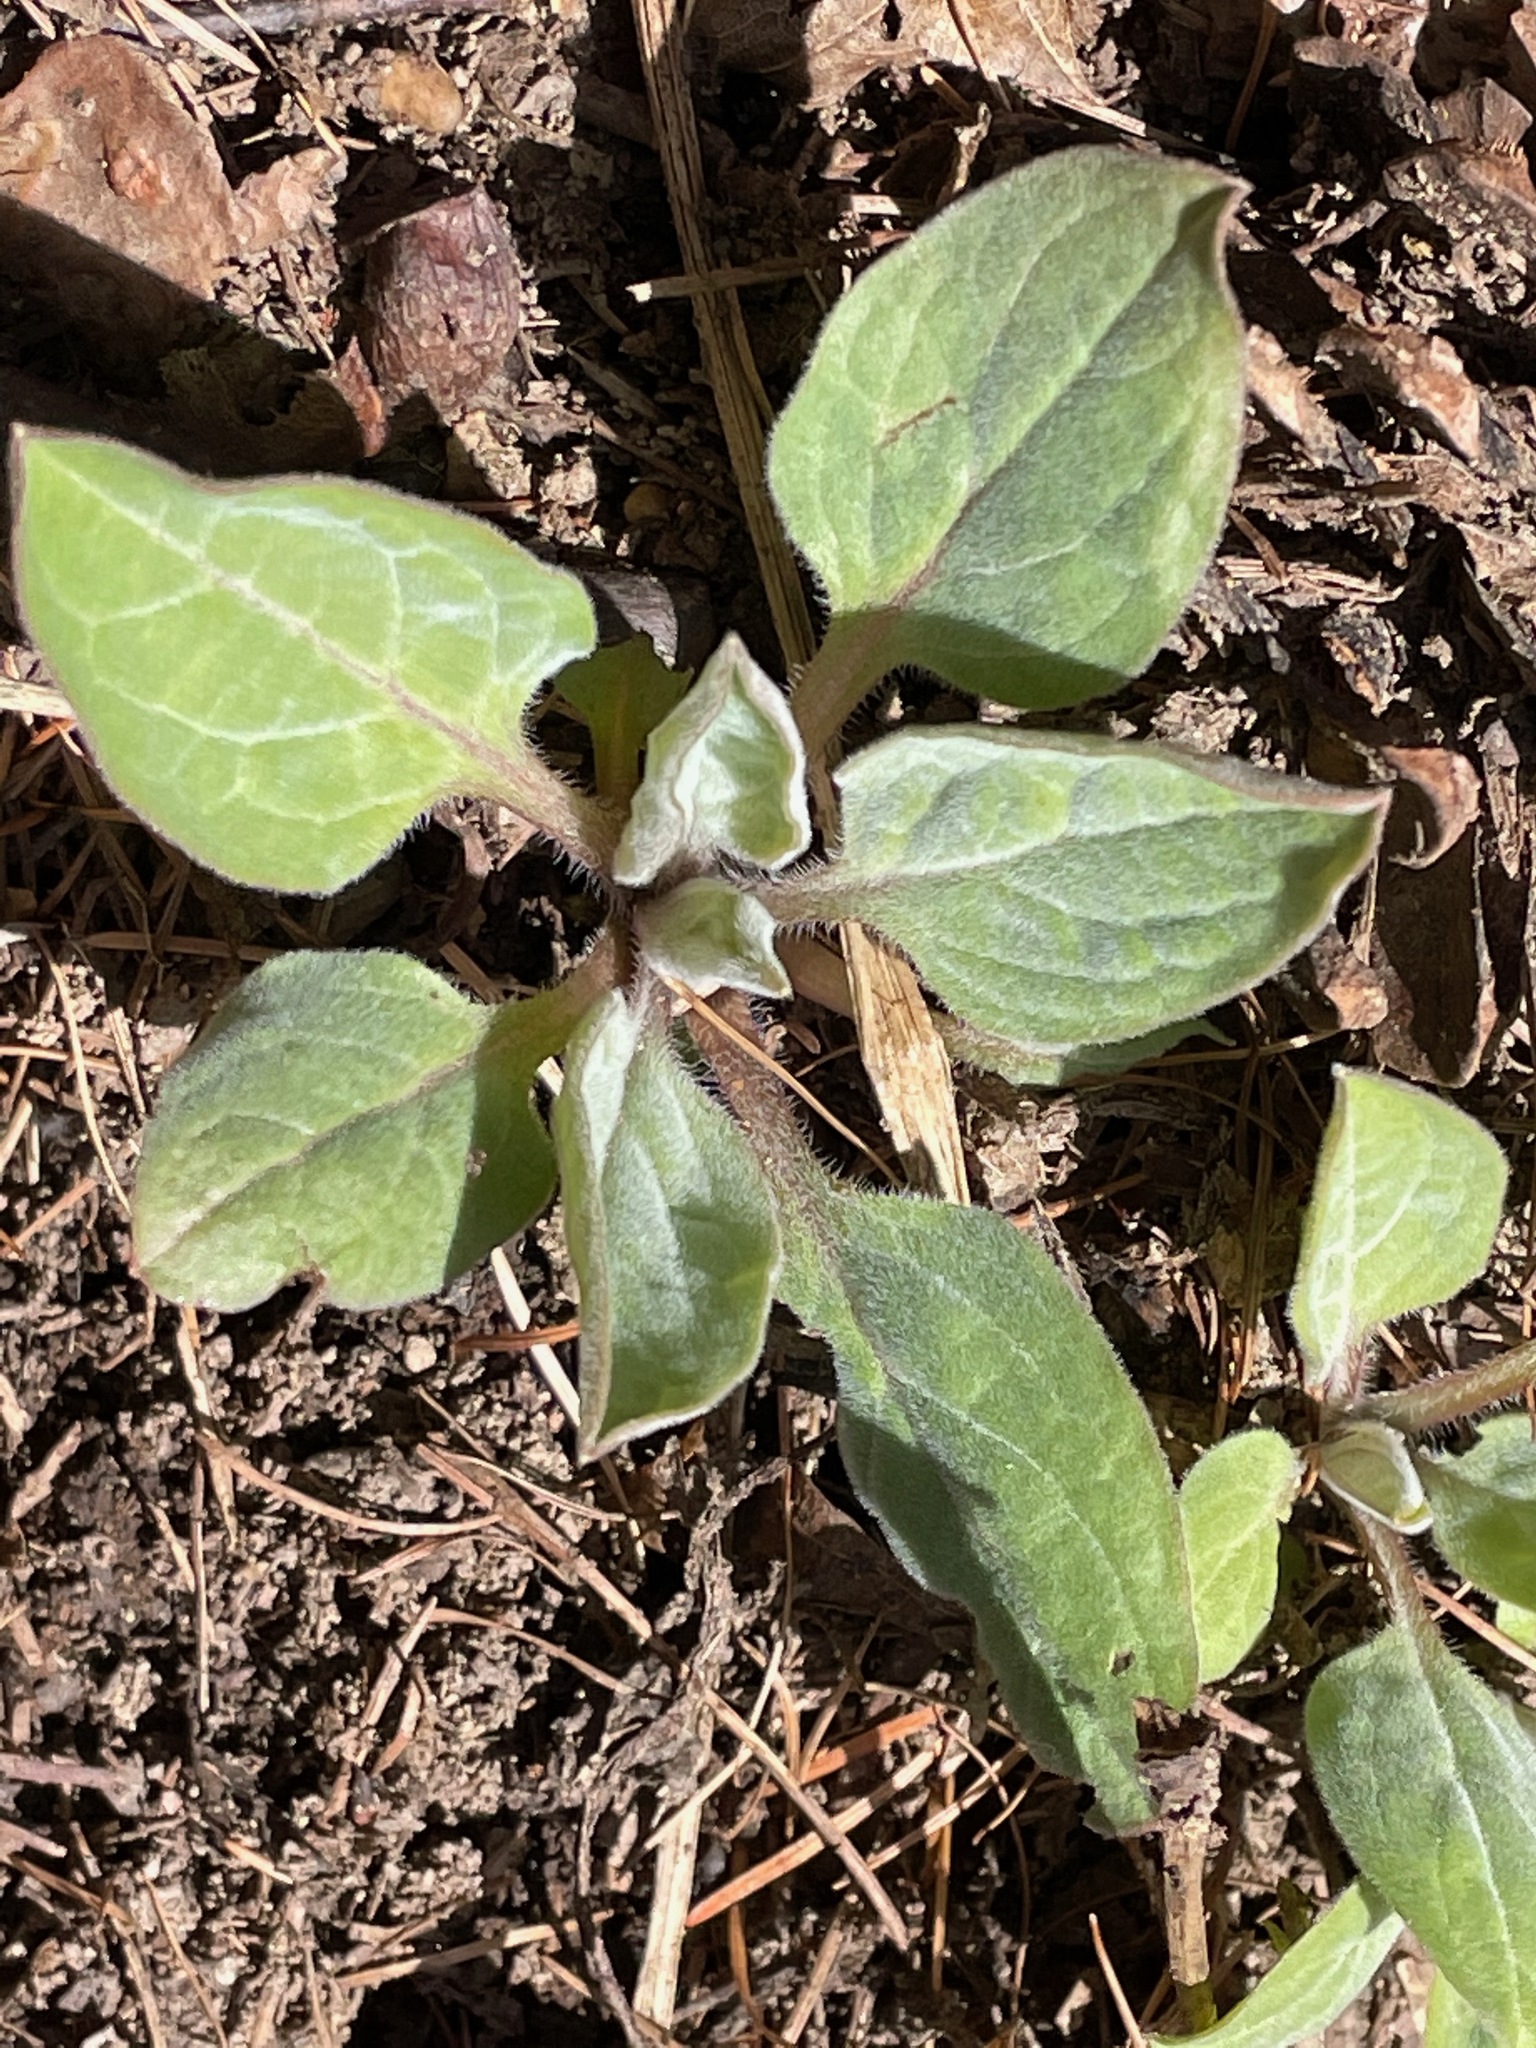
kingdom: Plantae
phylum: Tracheophyta
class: Magnoliopsida
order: Boraginales
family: Boraginaceae
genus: Hackelia
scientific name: Hackelia virginiana
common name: Beggar's-lice
